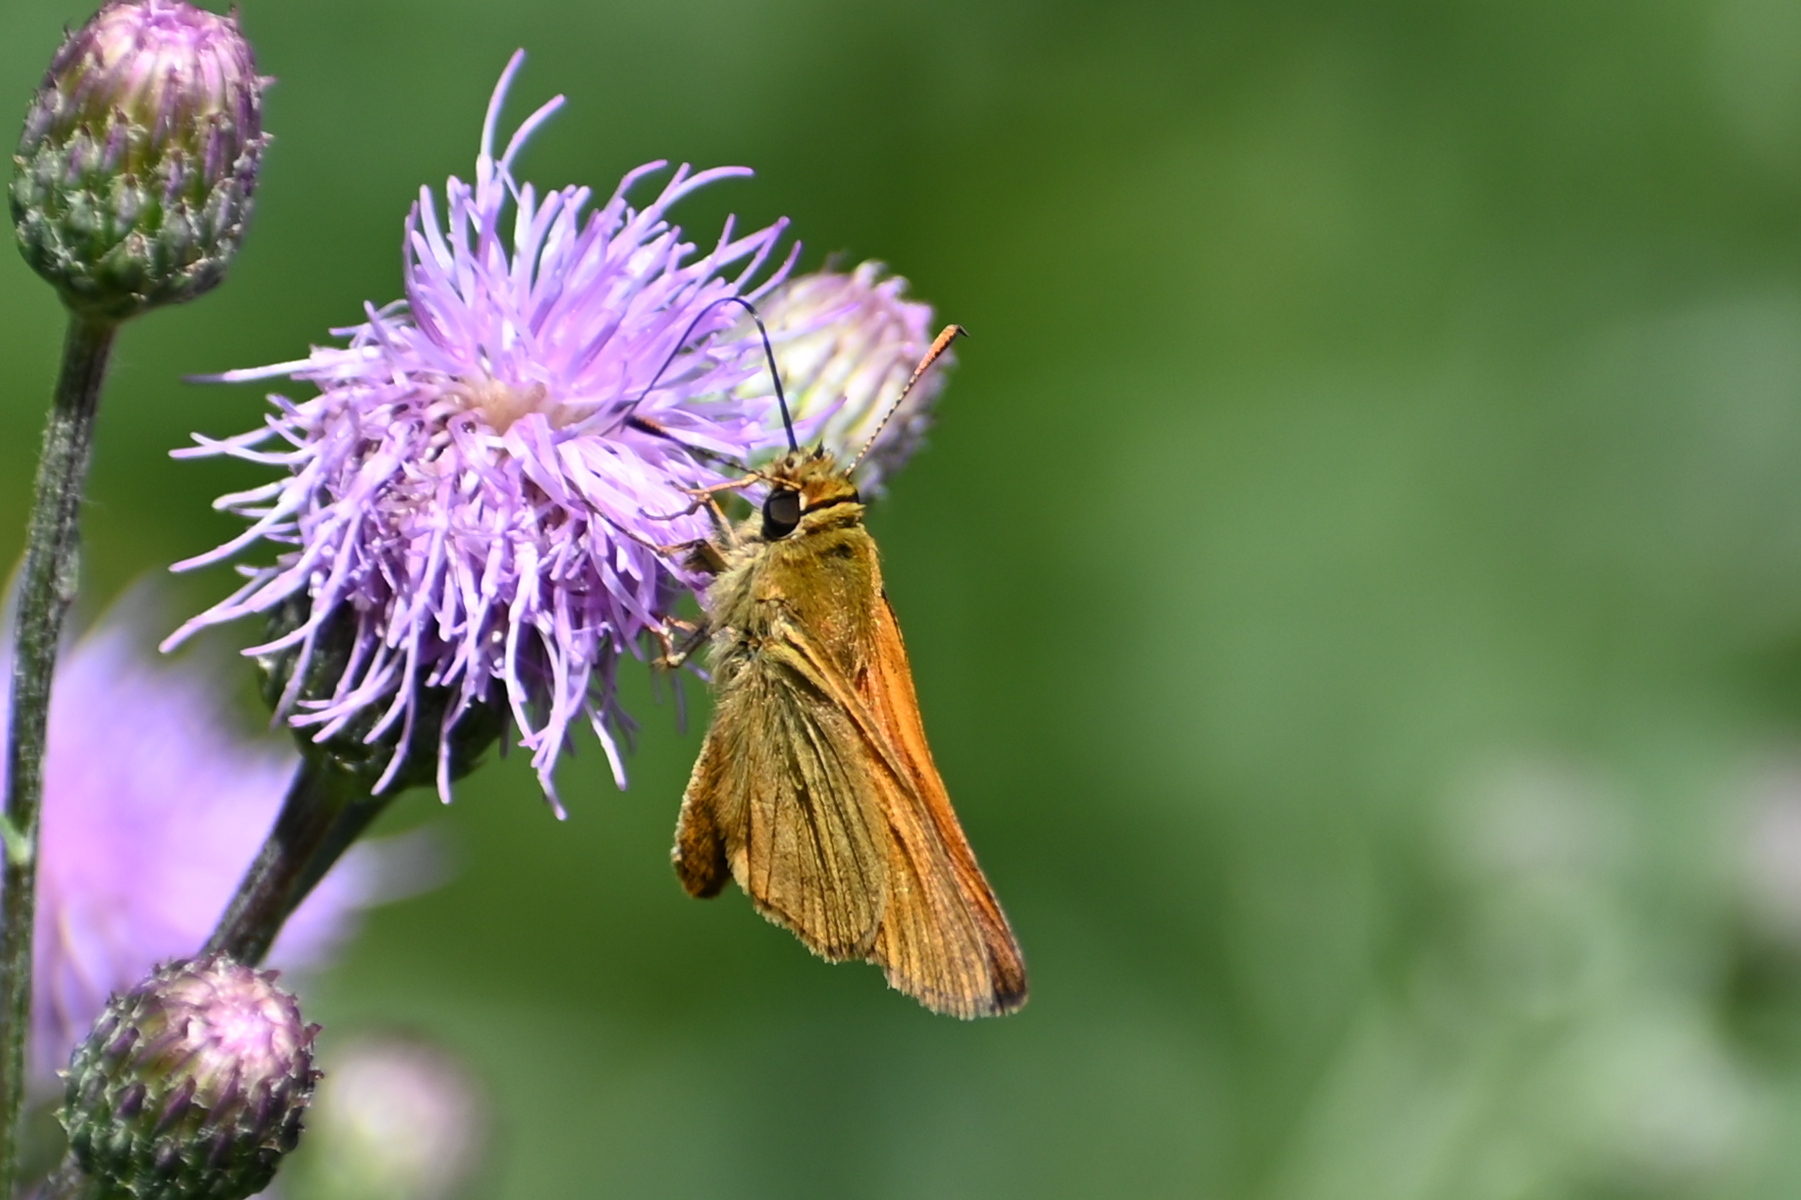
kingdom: Animalia
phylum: Arthropoda
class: Insecta
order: Lepidoptera
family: Hesperiidae
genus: Ochlodes
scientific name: Ochlodes venata
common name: Large skipper
